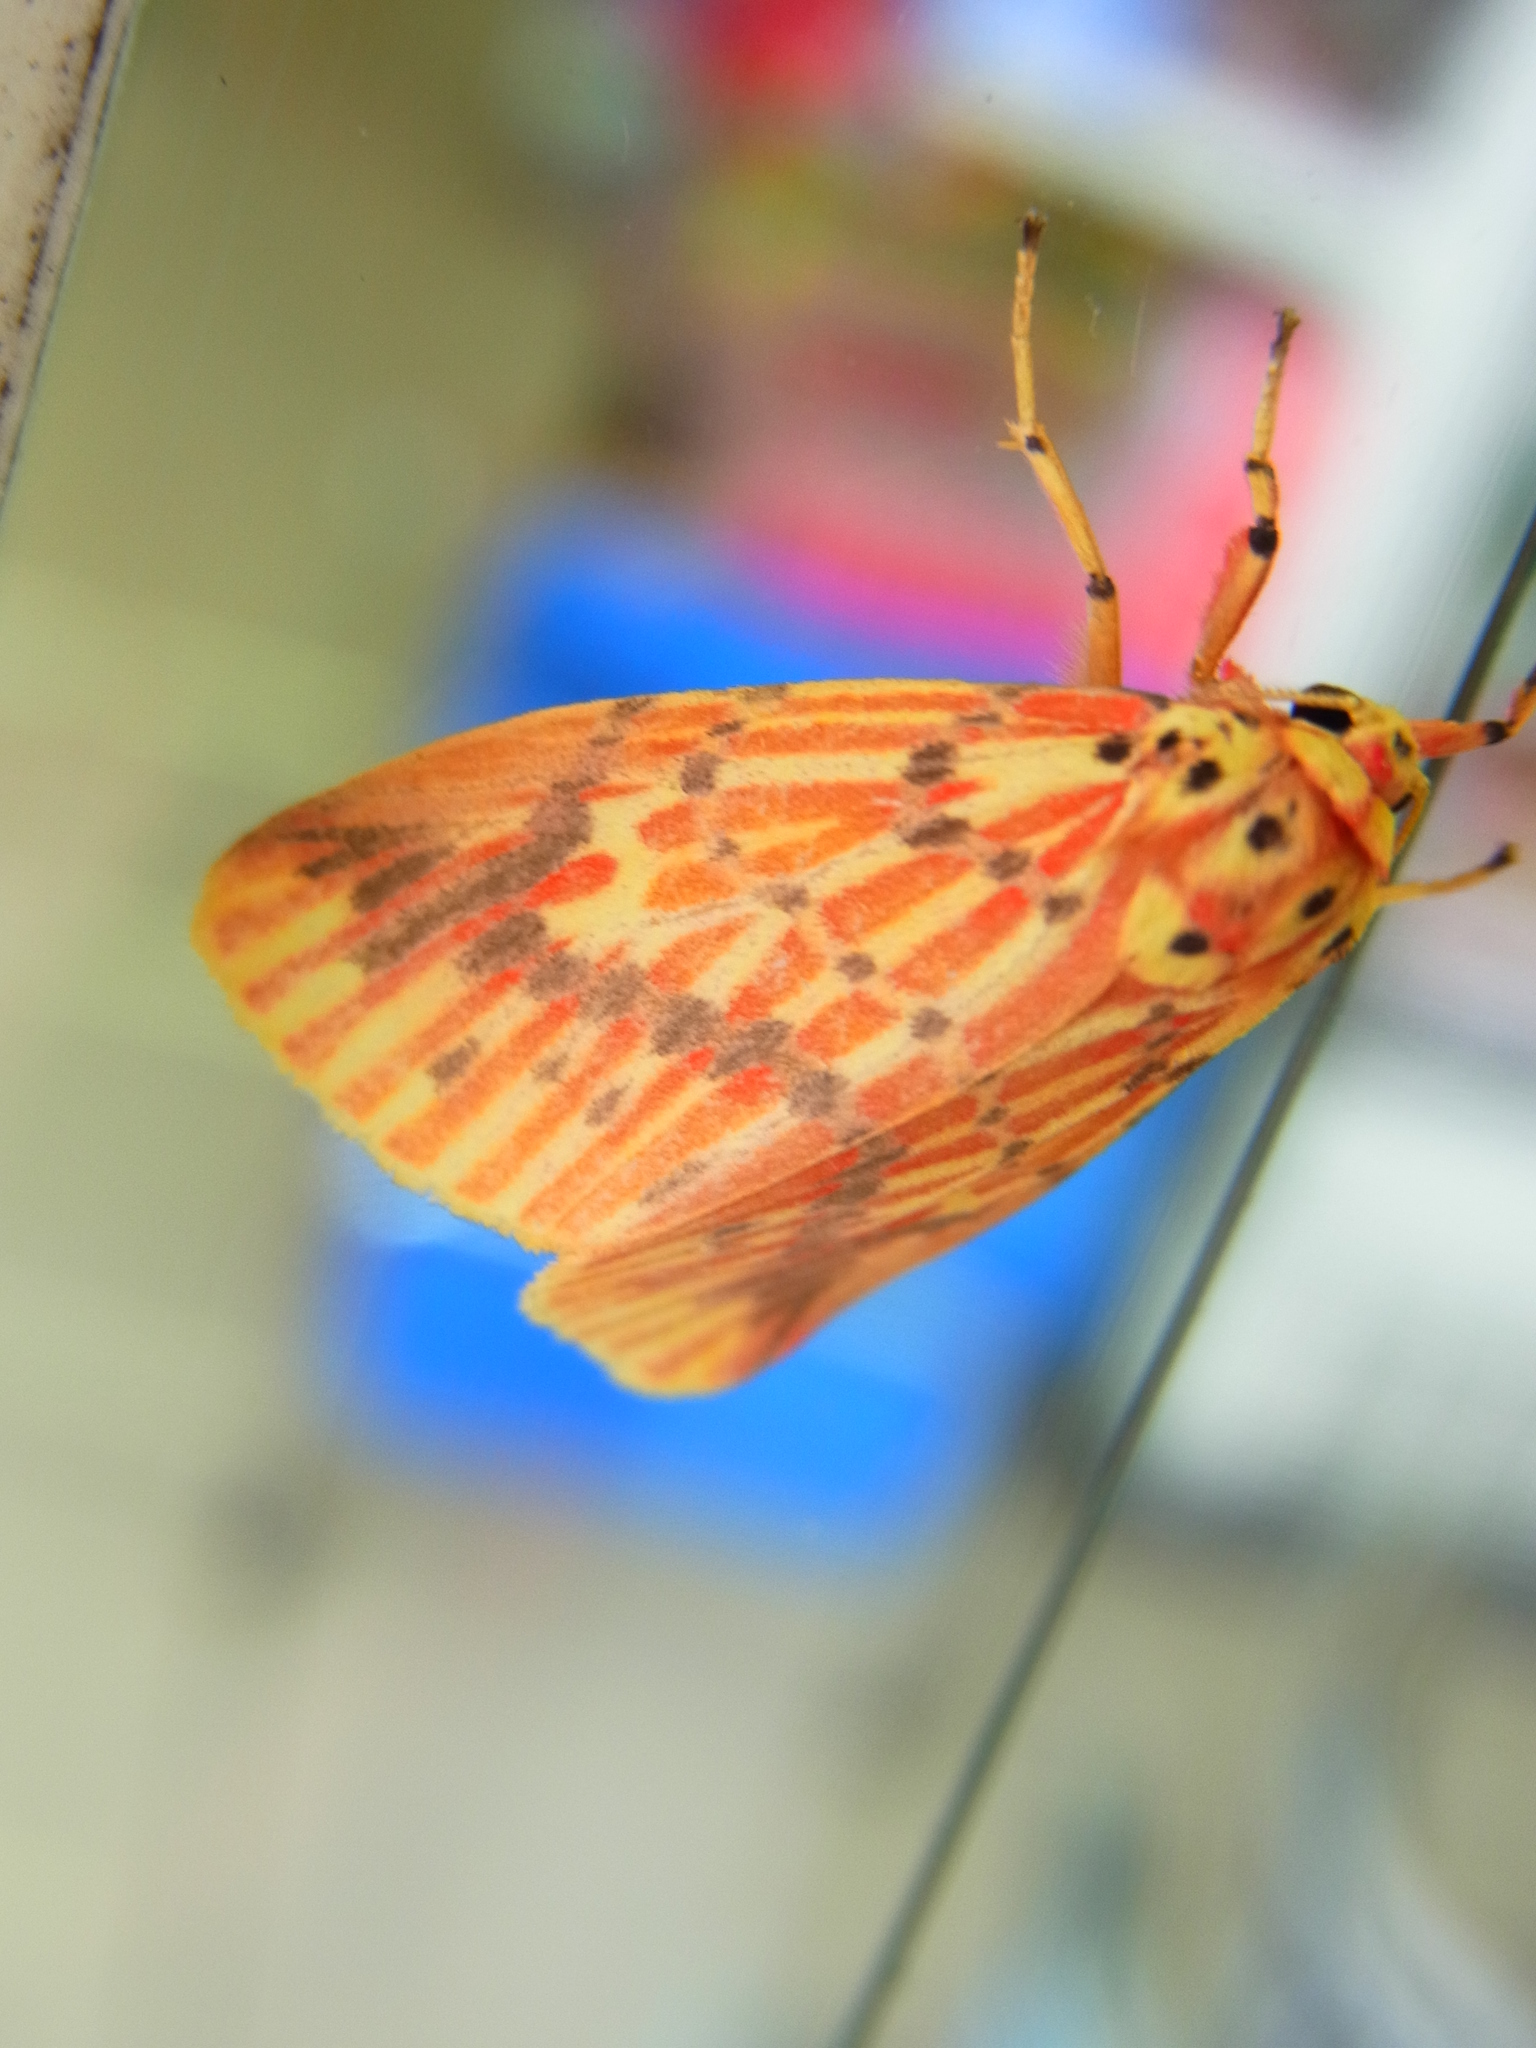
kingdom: Animalia
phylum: Arthropoda
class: Insecta
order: Lepidoptera
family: Erebidae
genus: Barsine
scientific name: Barsine striata
